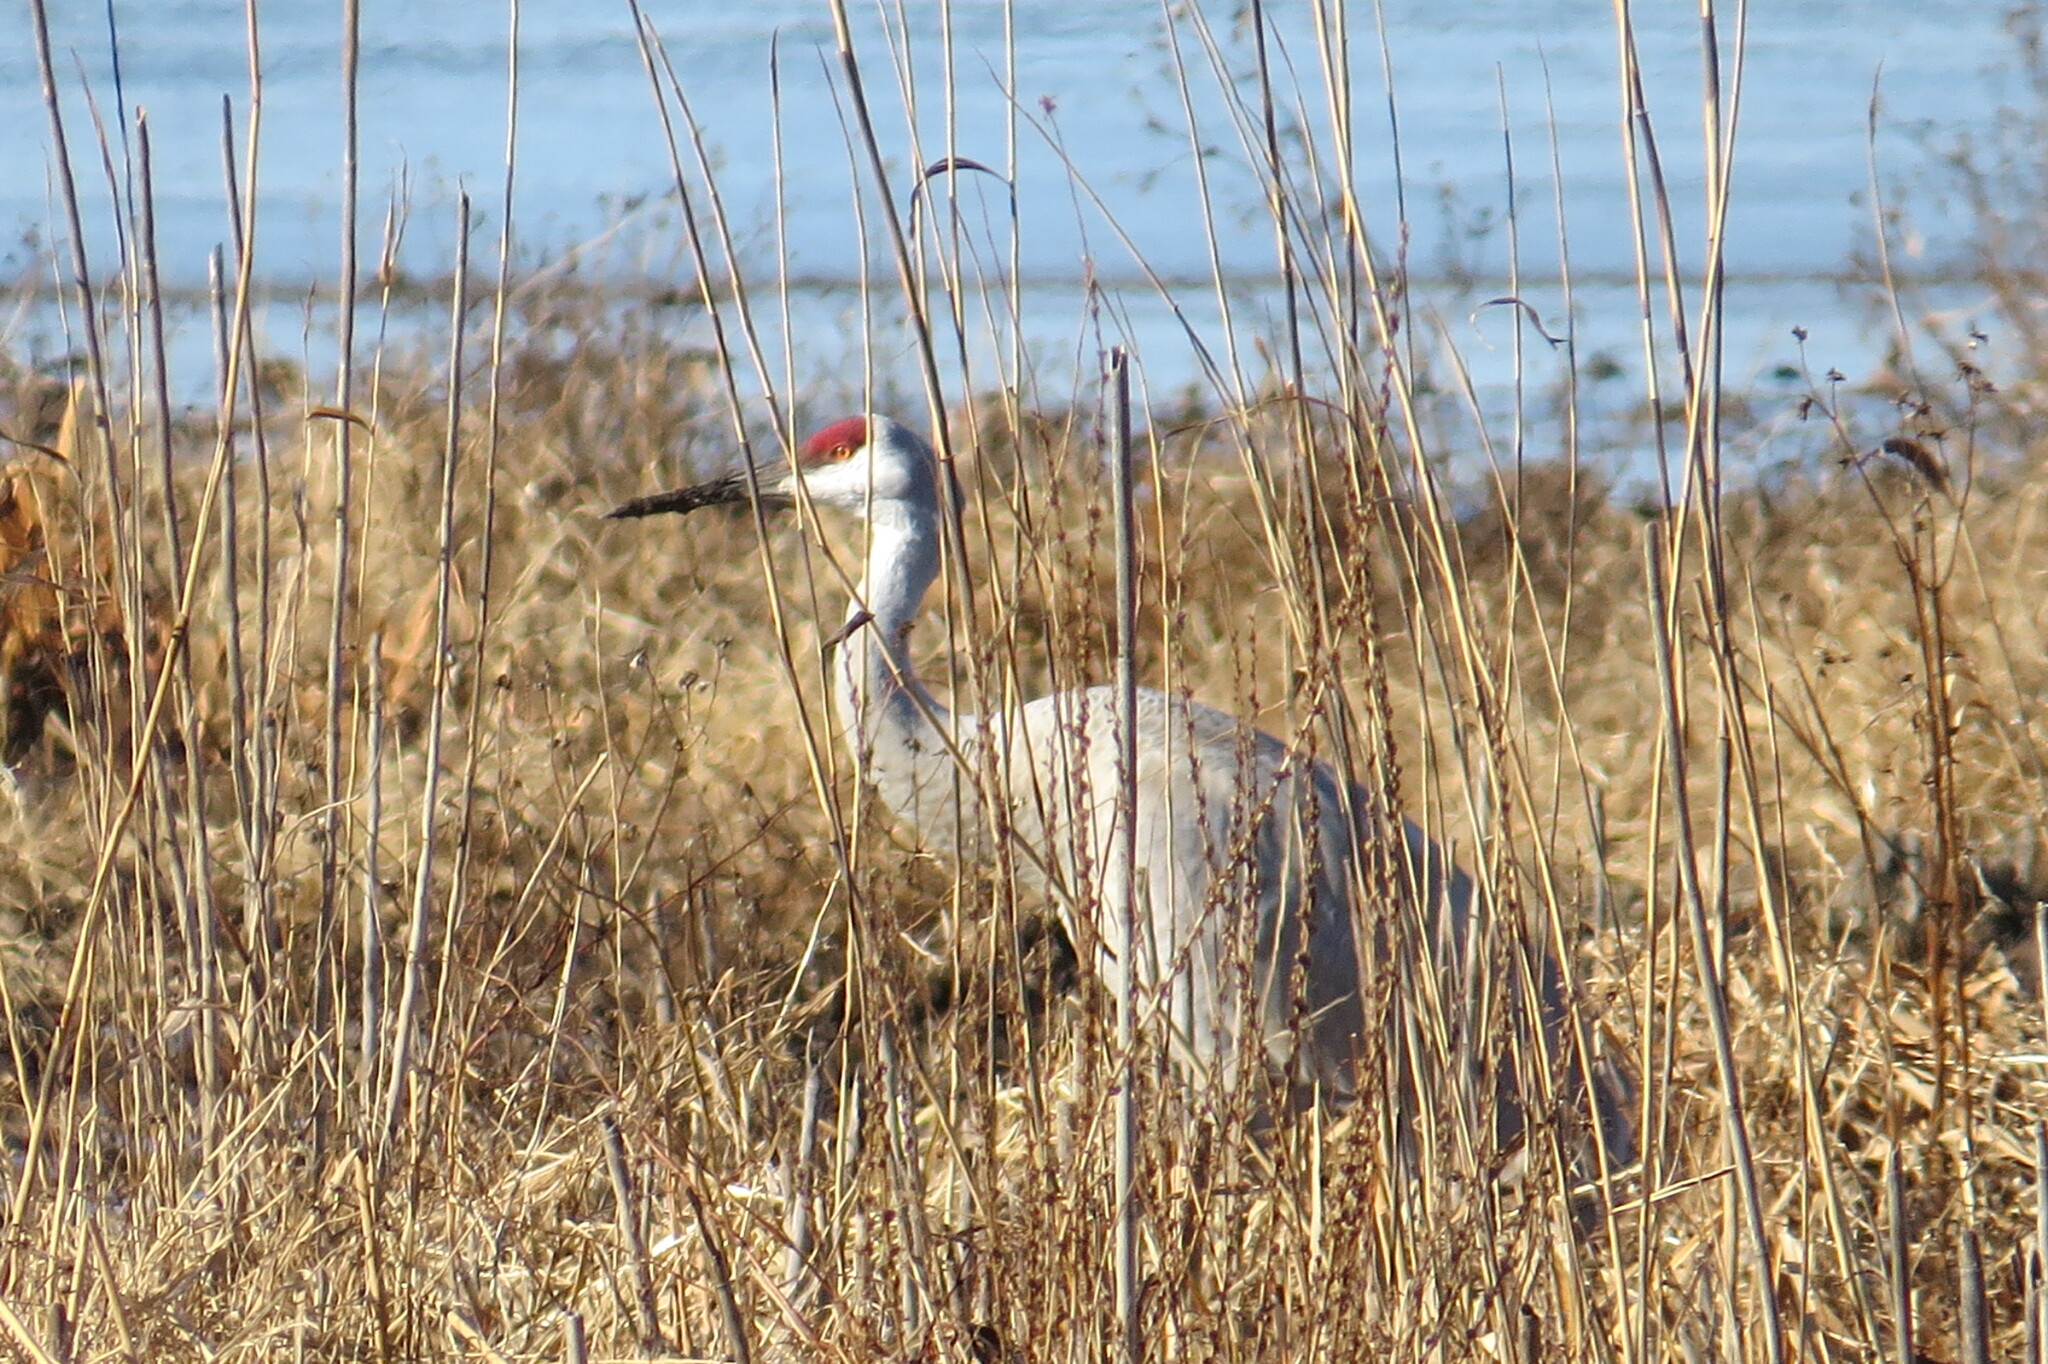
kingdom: Animalia
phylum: Chordata
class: Aves
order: Gruiformes
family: Gruidae
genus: Grus
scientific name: Grus canadensis
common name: Sandhill crane
